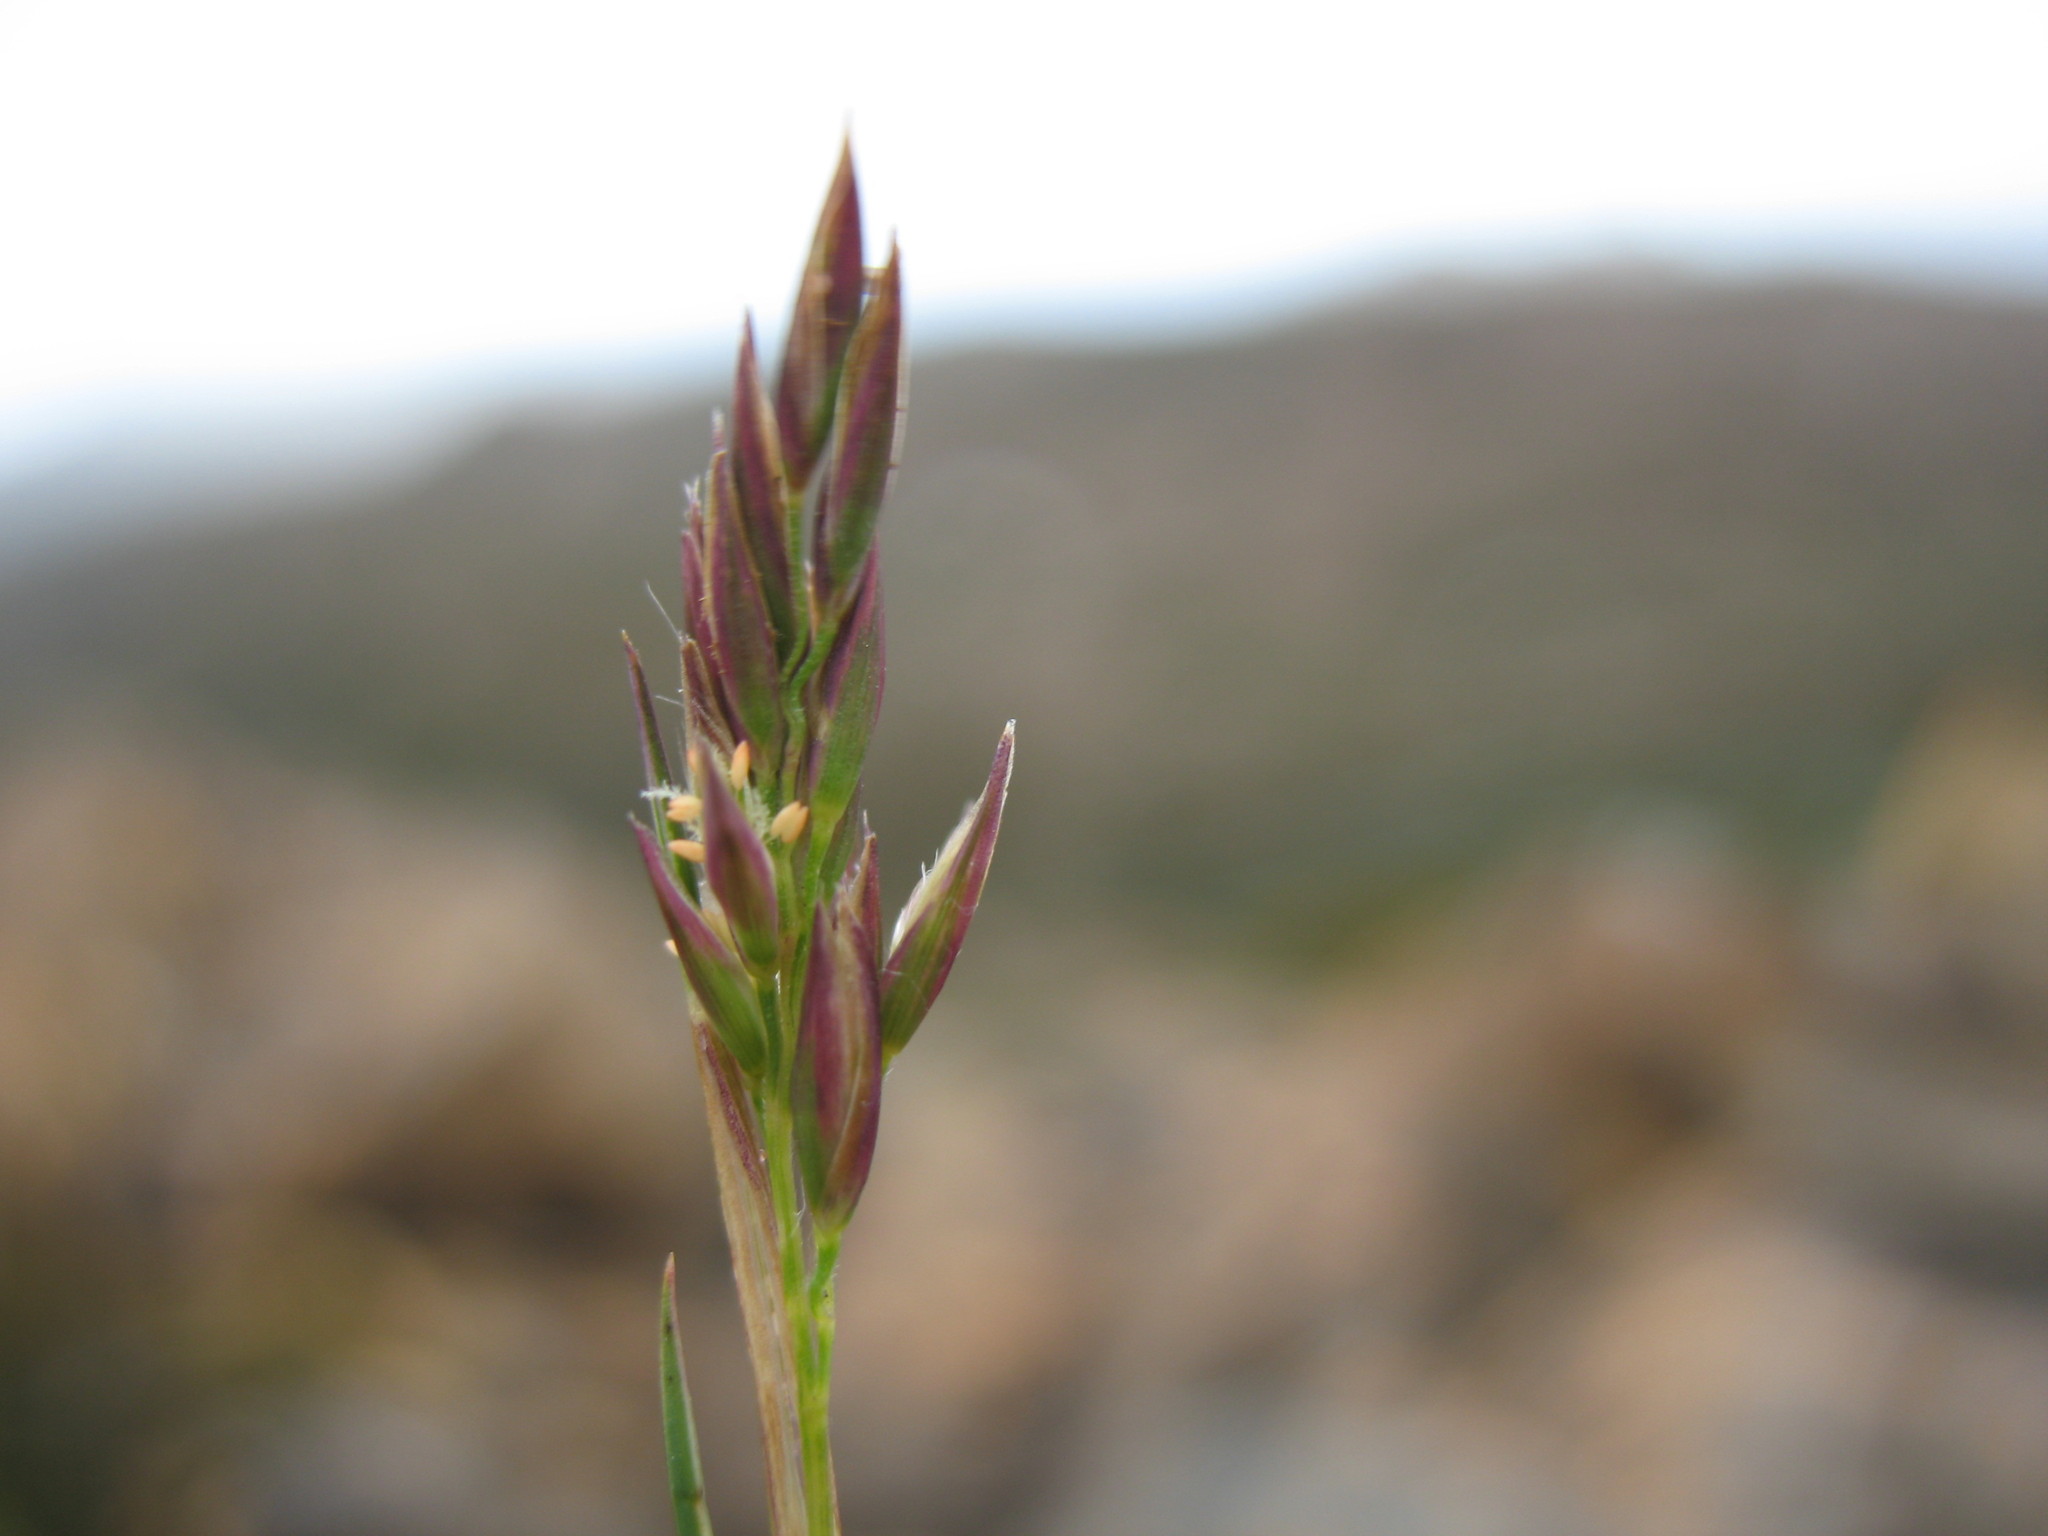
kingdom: Plantae
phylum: Tracheophyta
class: Liliopsida
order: Poales
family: Poaceae
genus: Rytidosperma
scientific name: Rytidosperma fortunae-hibernae
